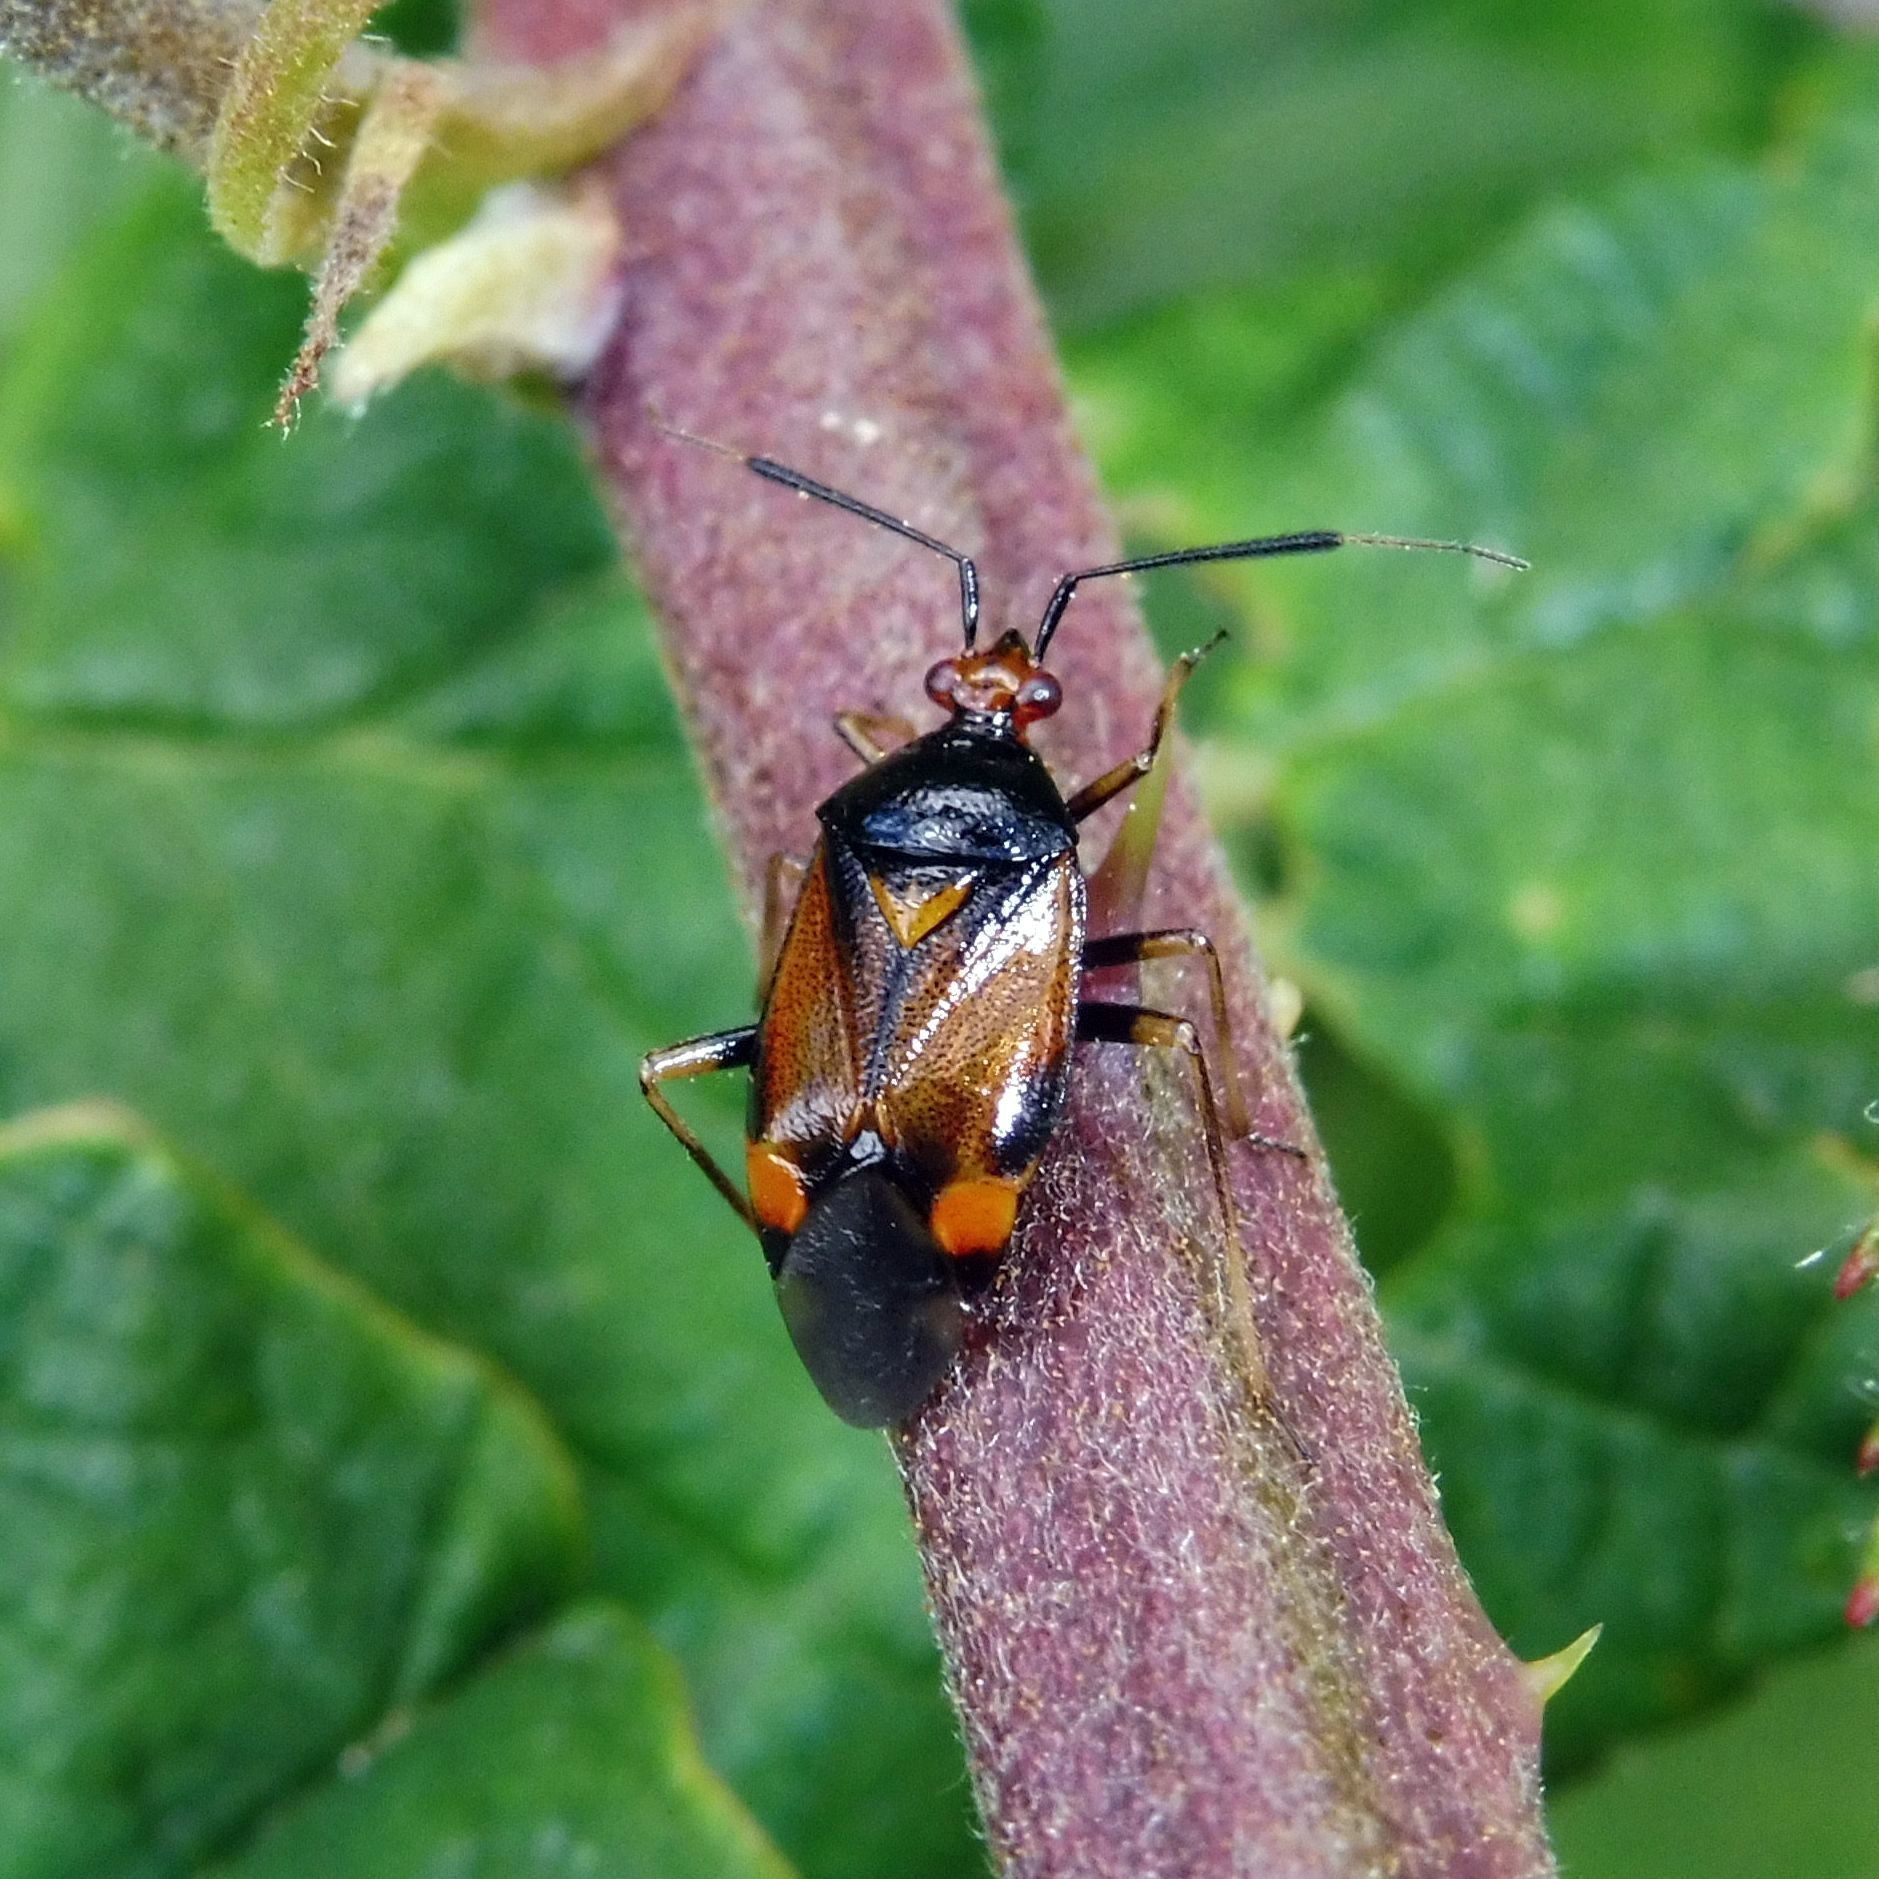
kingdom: Animalia
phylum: Arthropoda
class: Insecta
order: Hemiptera
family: Miridae
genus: Deraeocoris
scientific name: Deraeocoris ruber
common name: Plant bug
